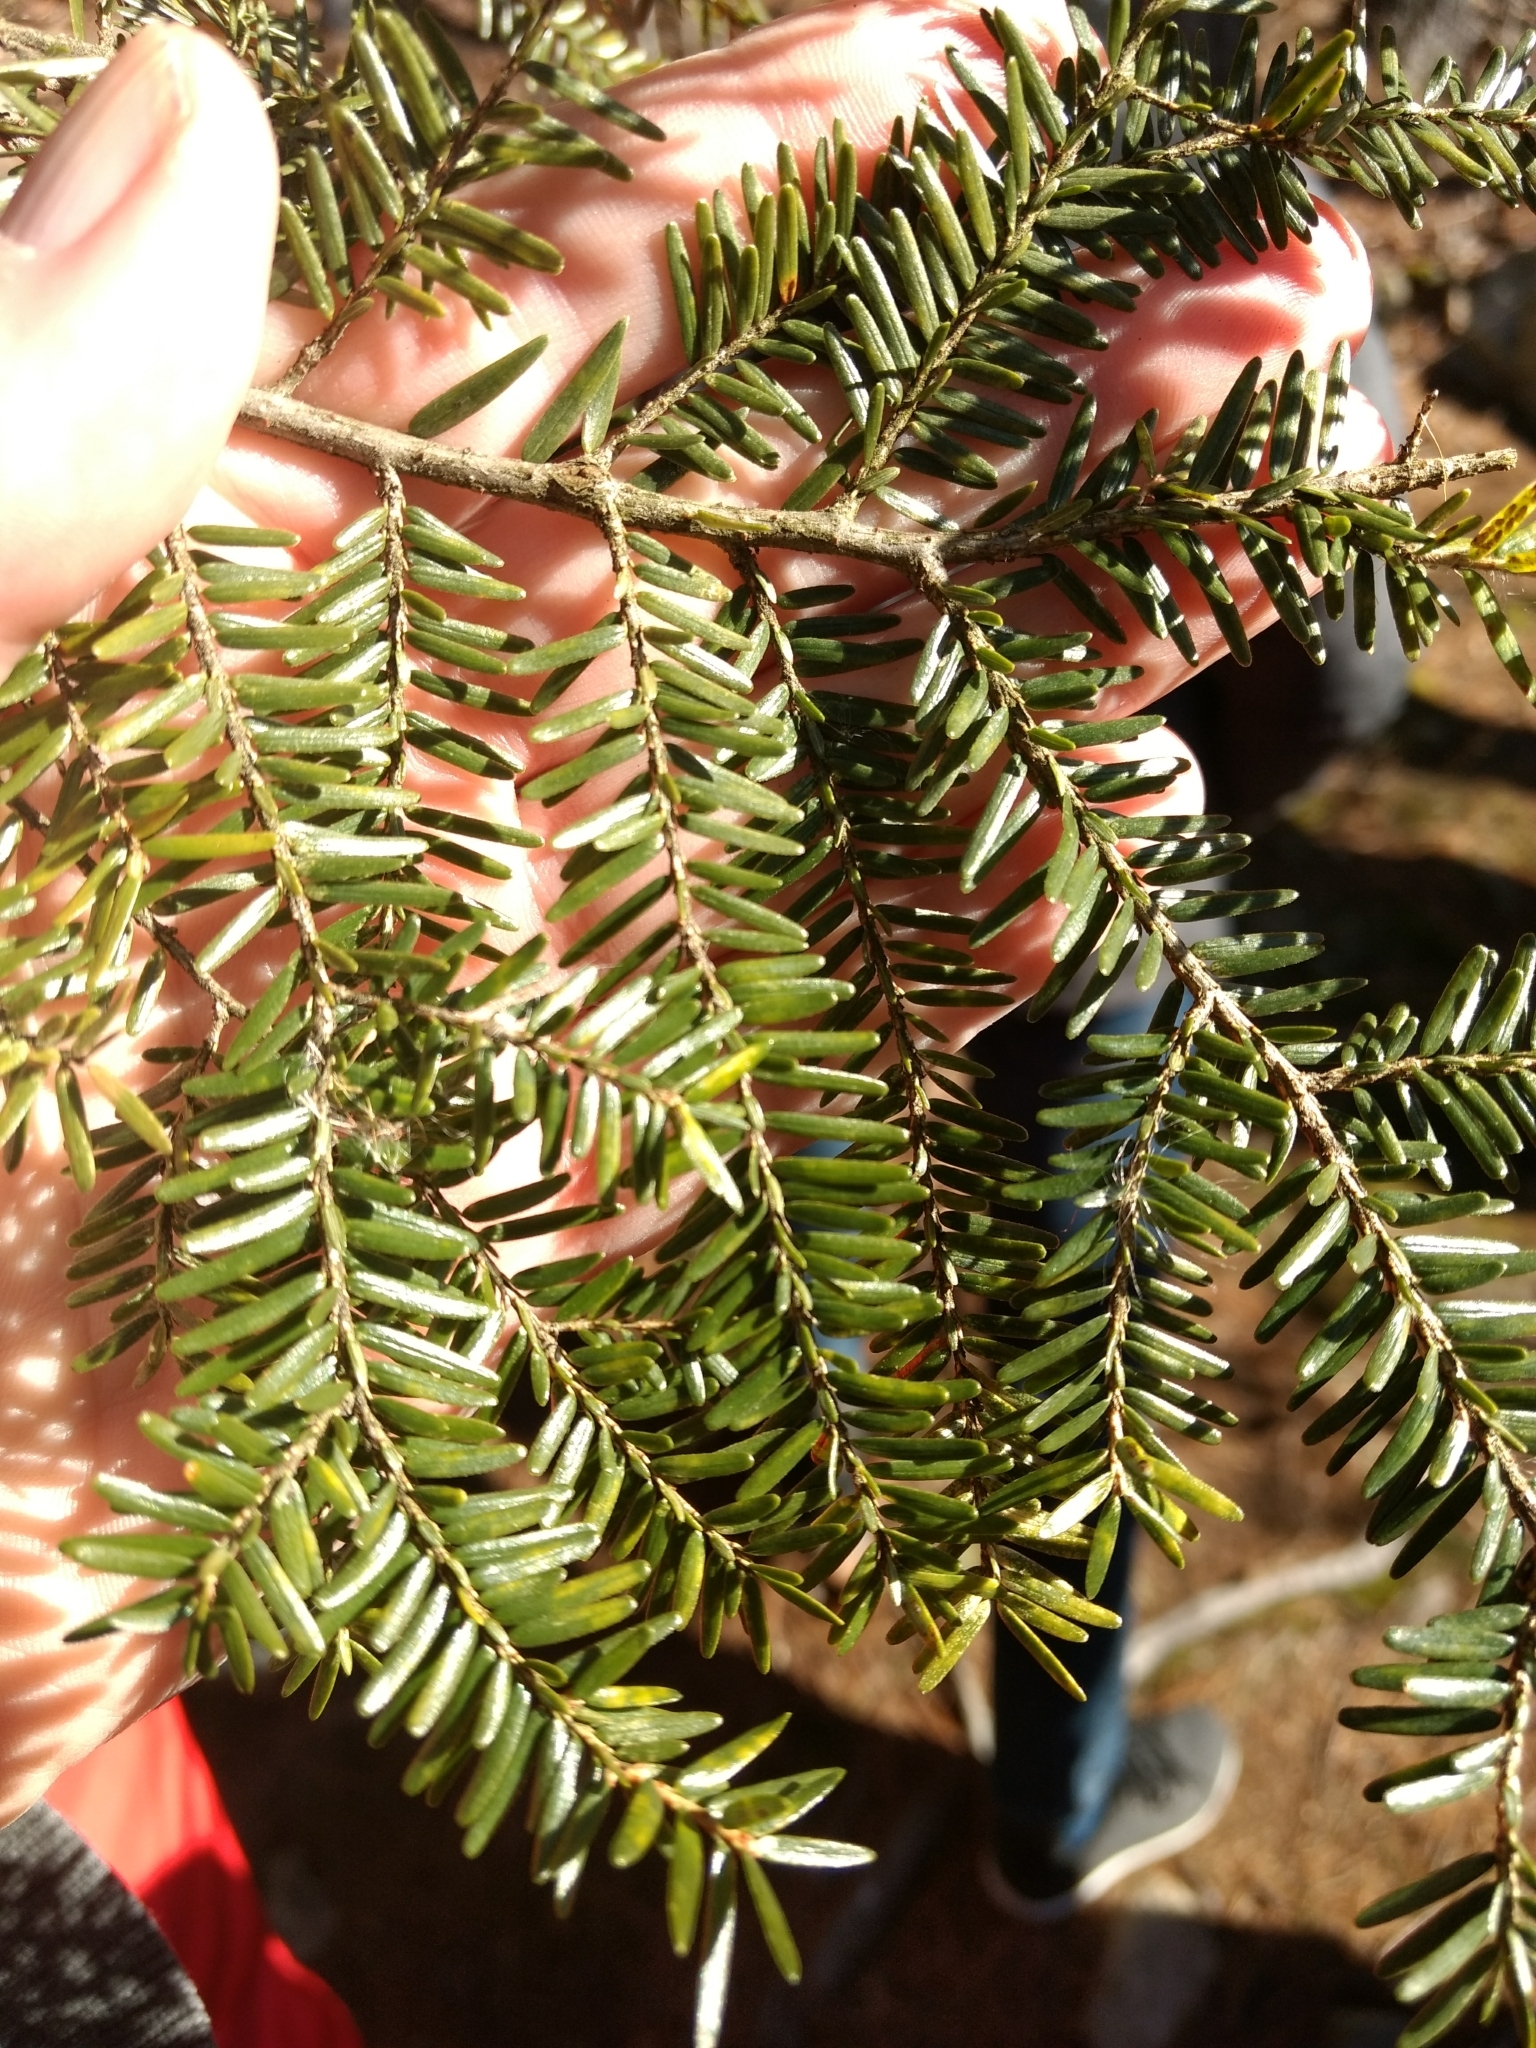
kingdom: Plantae
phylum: Tracheophyta
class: Pinopsida
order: Pinales
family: Pinaceae
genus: Tsuga
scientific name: Tsuga canadensis
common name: Eastern hemlock
